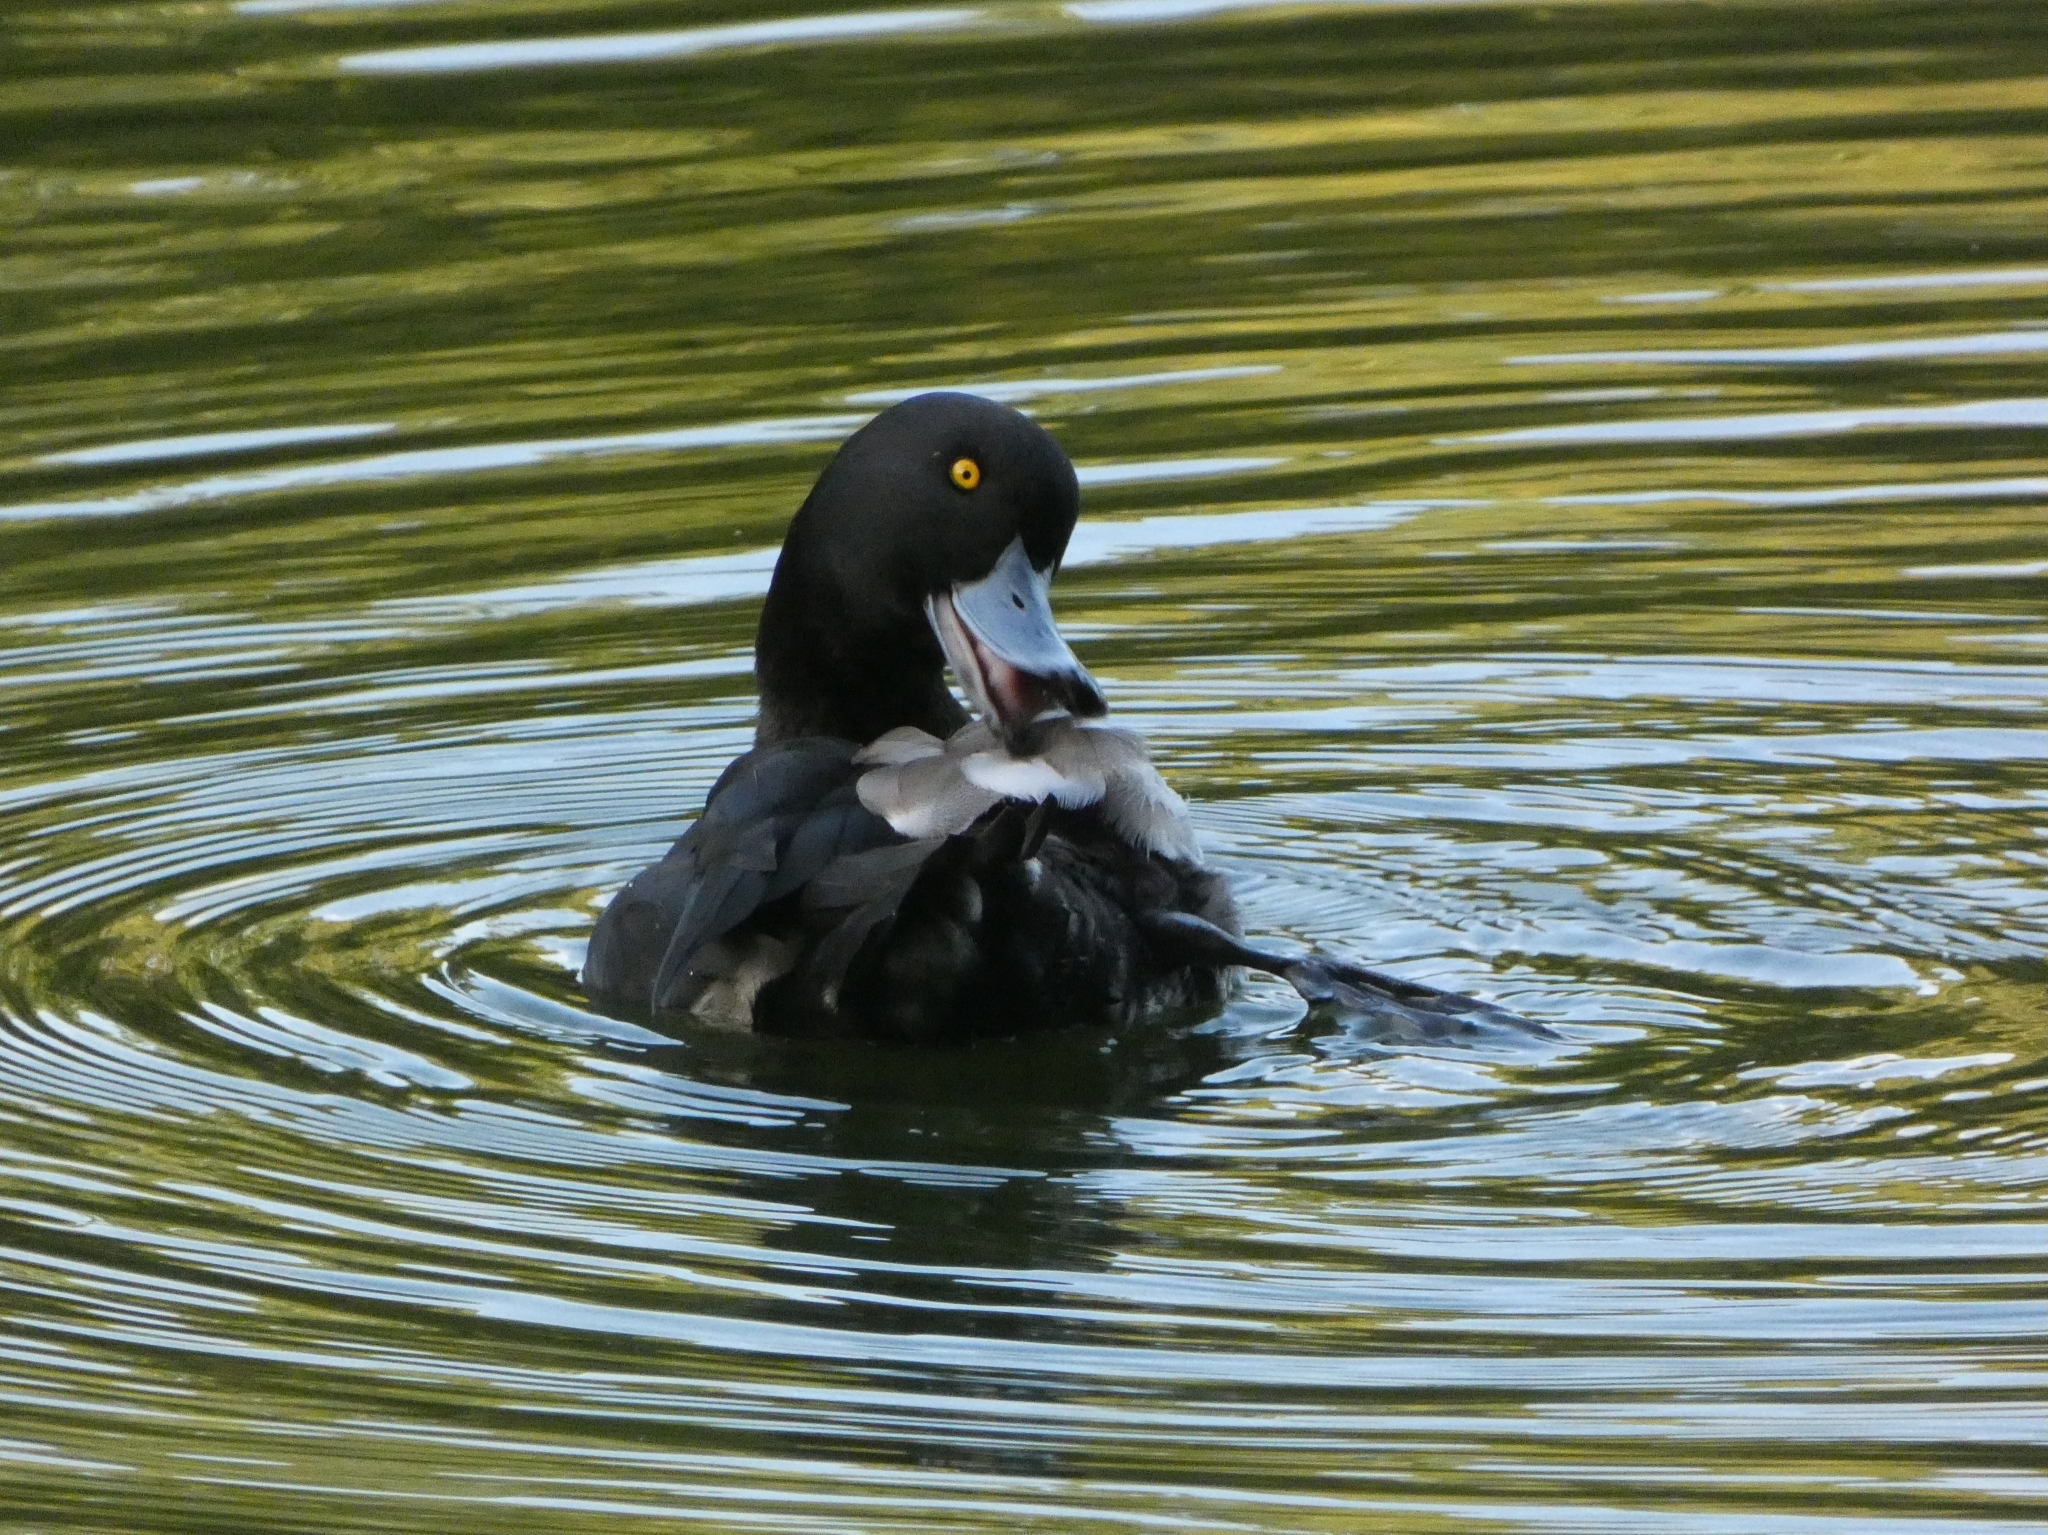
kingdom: Animalia
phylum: Chordata
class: Aves
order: Anseriformes
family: Anatidae
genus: Aythya
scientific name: Aythya fuligula
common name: Tufted duck
